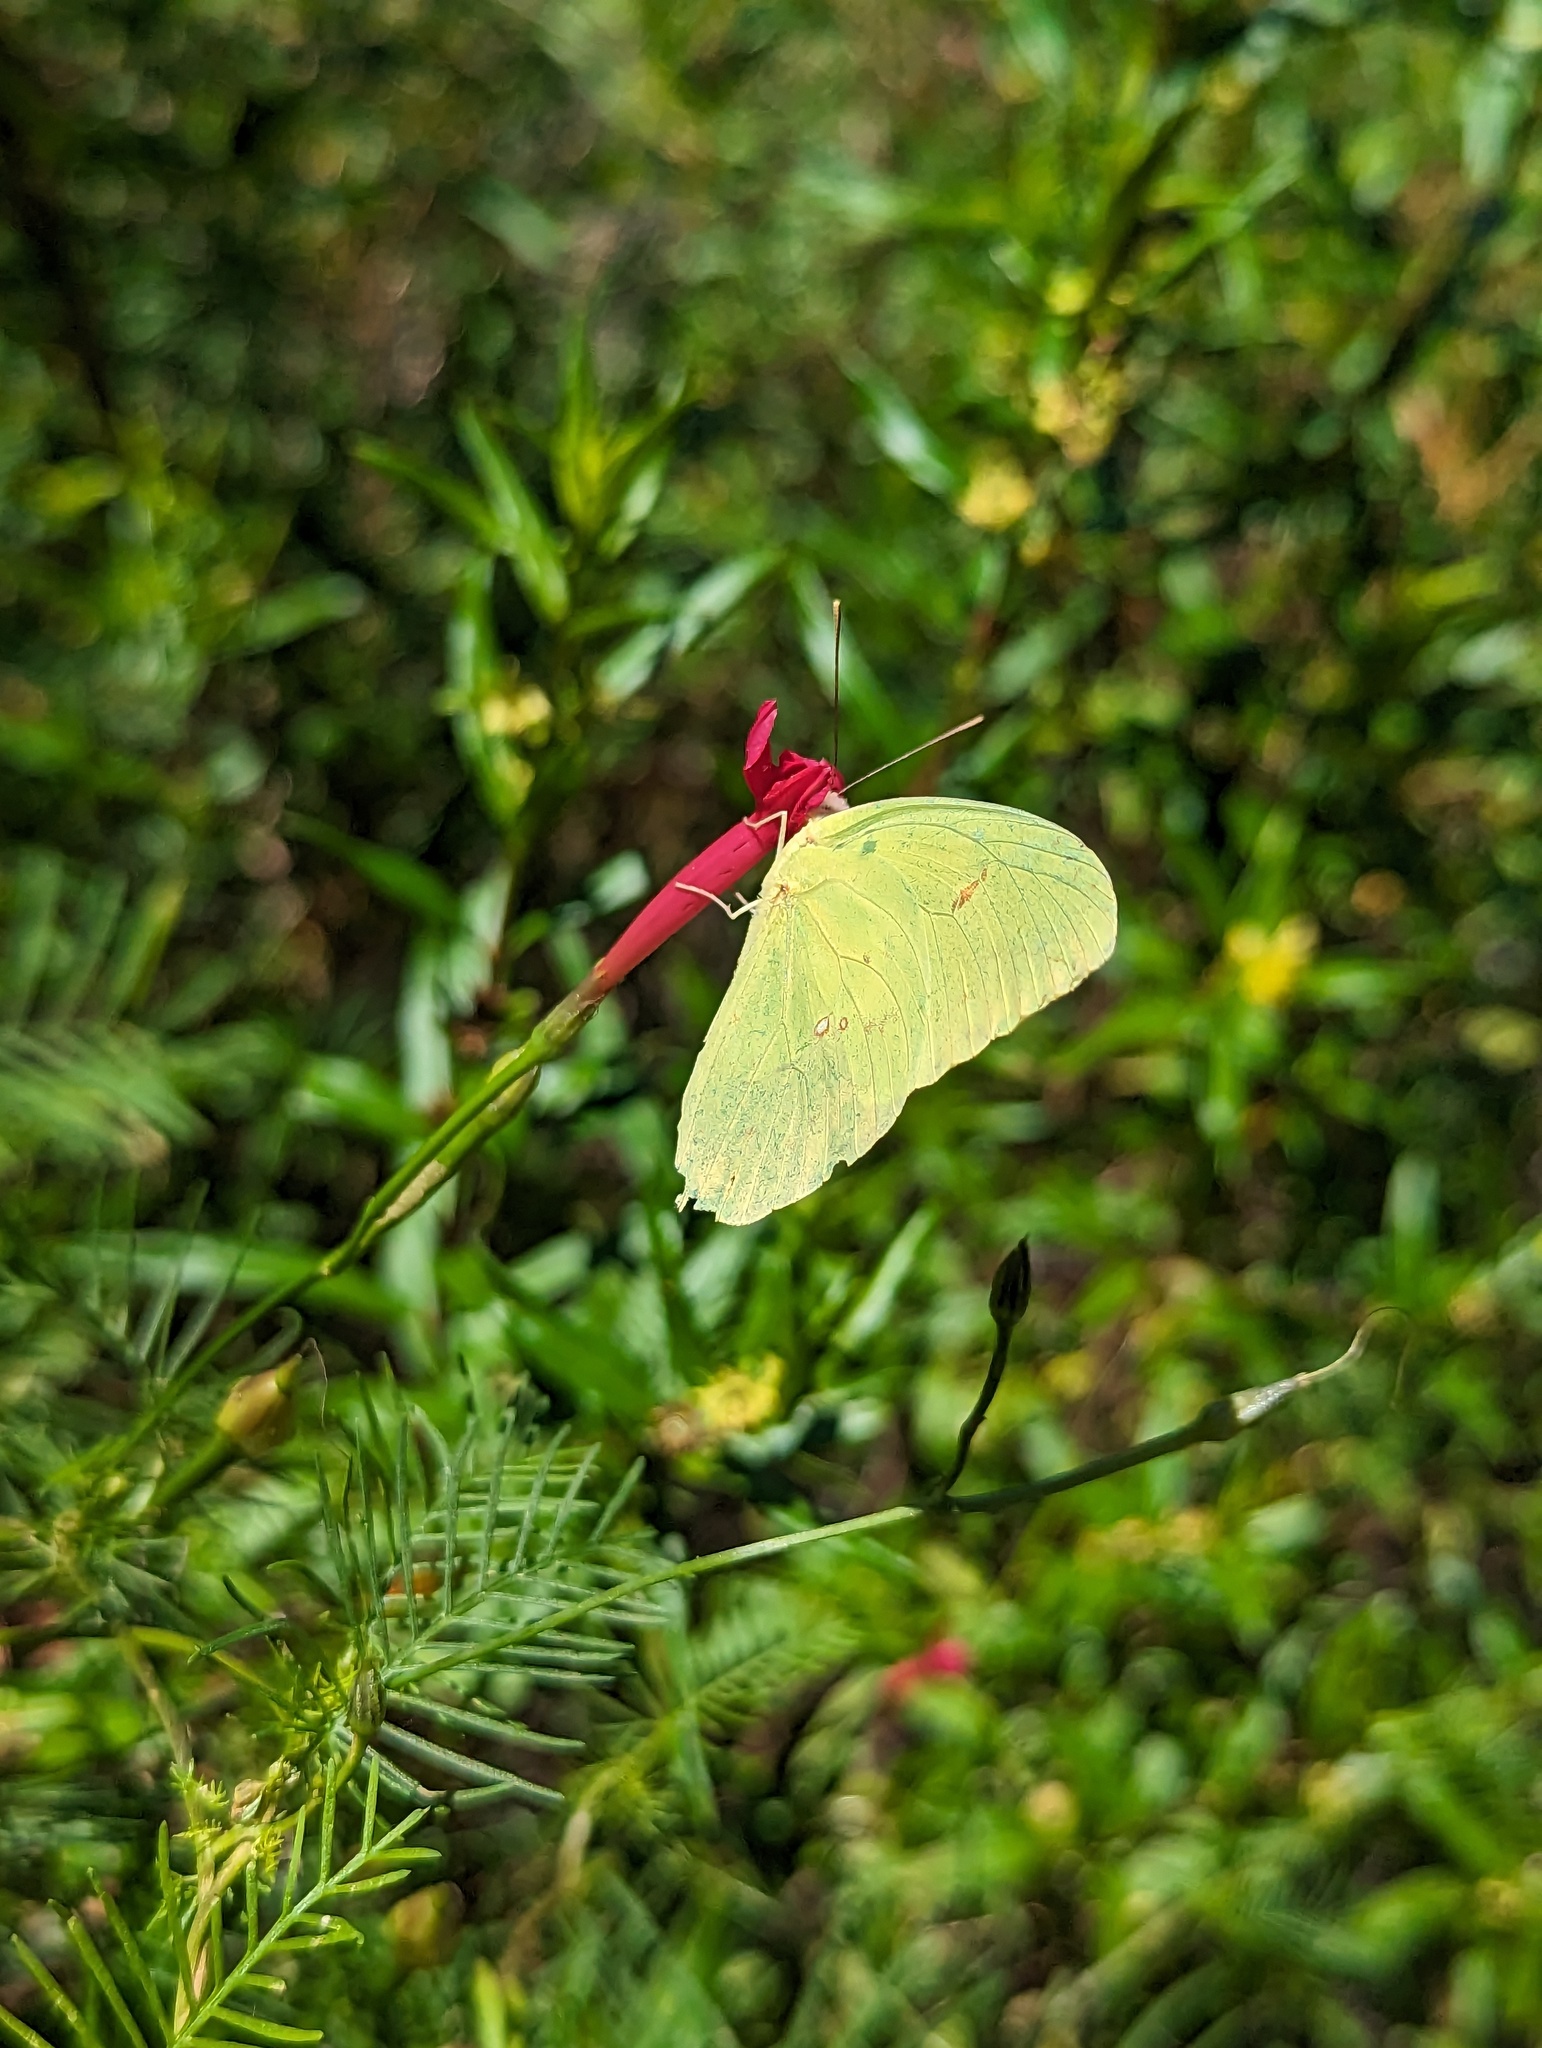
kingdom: Plantae
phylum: Tracheophyta
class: Magnoliopsida
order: Solanales
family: Convolvulaceae
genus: Ipomoea
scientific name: Ipomoea quamoclit
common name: Cypress vine
